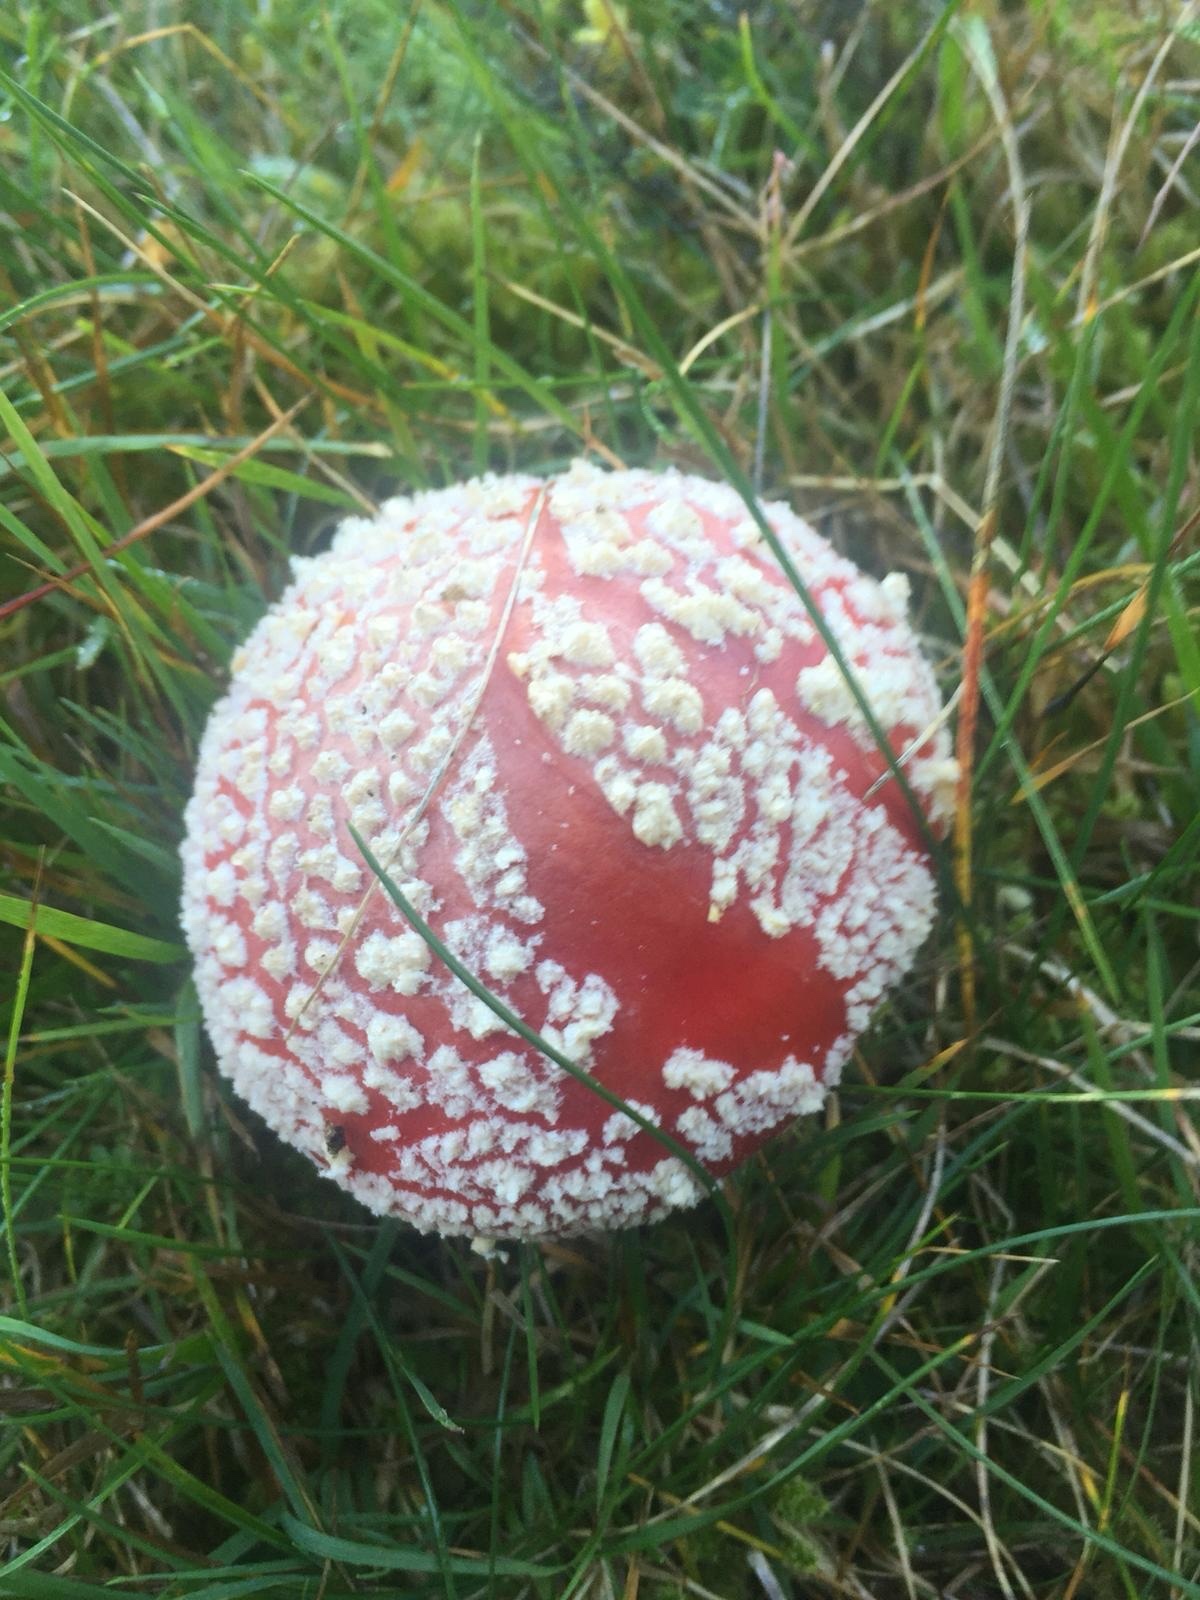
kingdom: Fungi
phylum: Basidiomycota
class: Agaricomycetes
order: Agaricales
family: Amanitaceae
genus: Amanita
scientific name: Amanita muscaria
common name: Fly agaric
